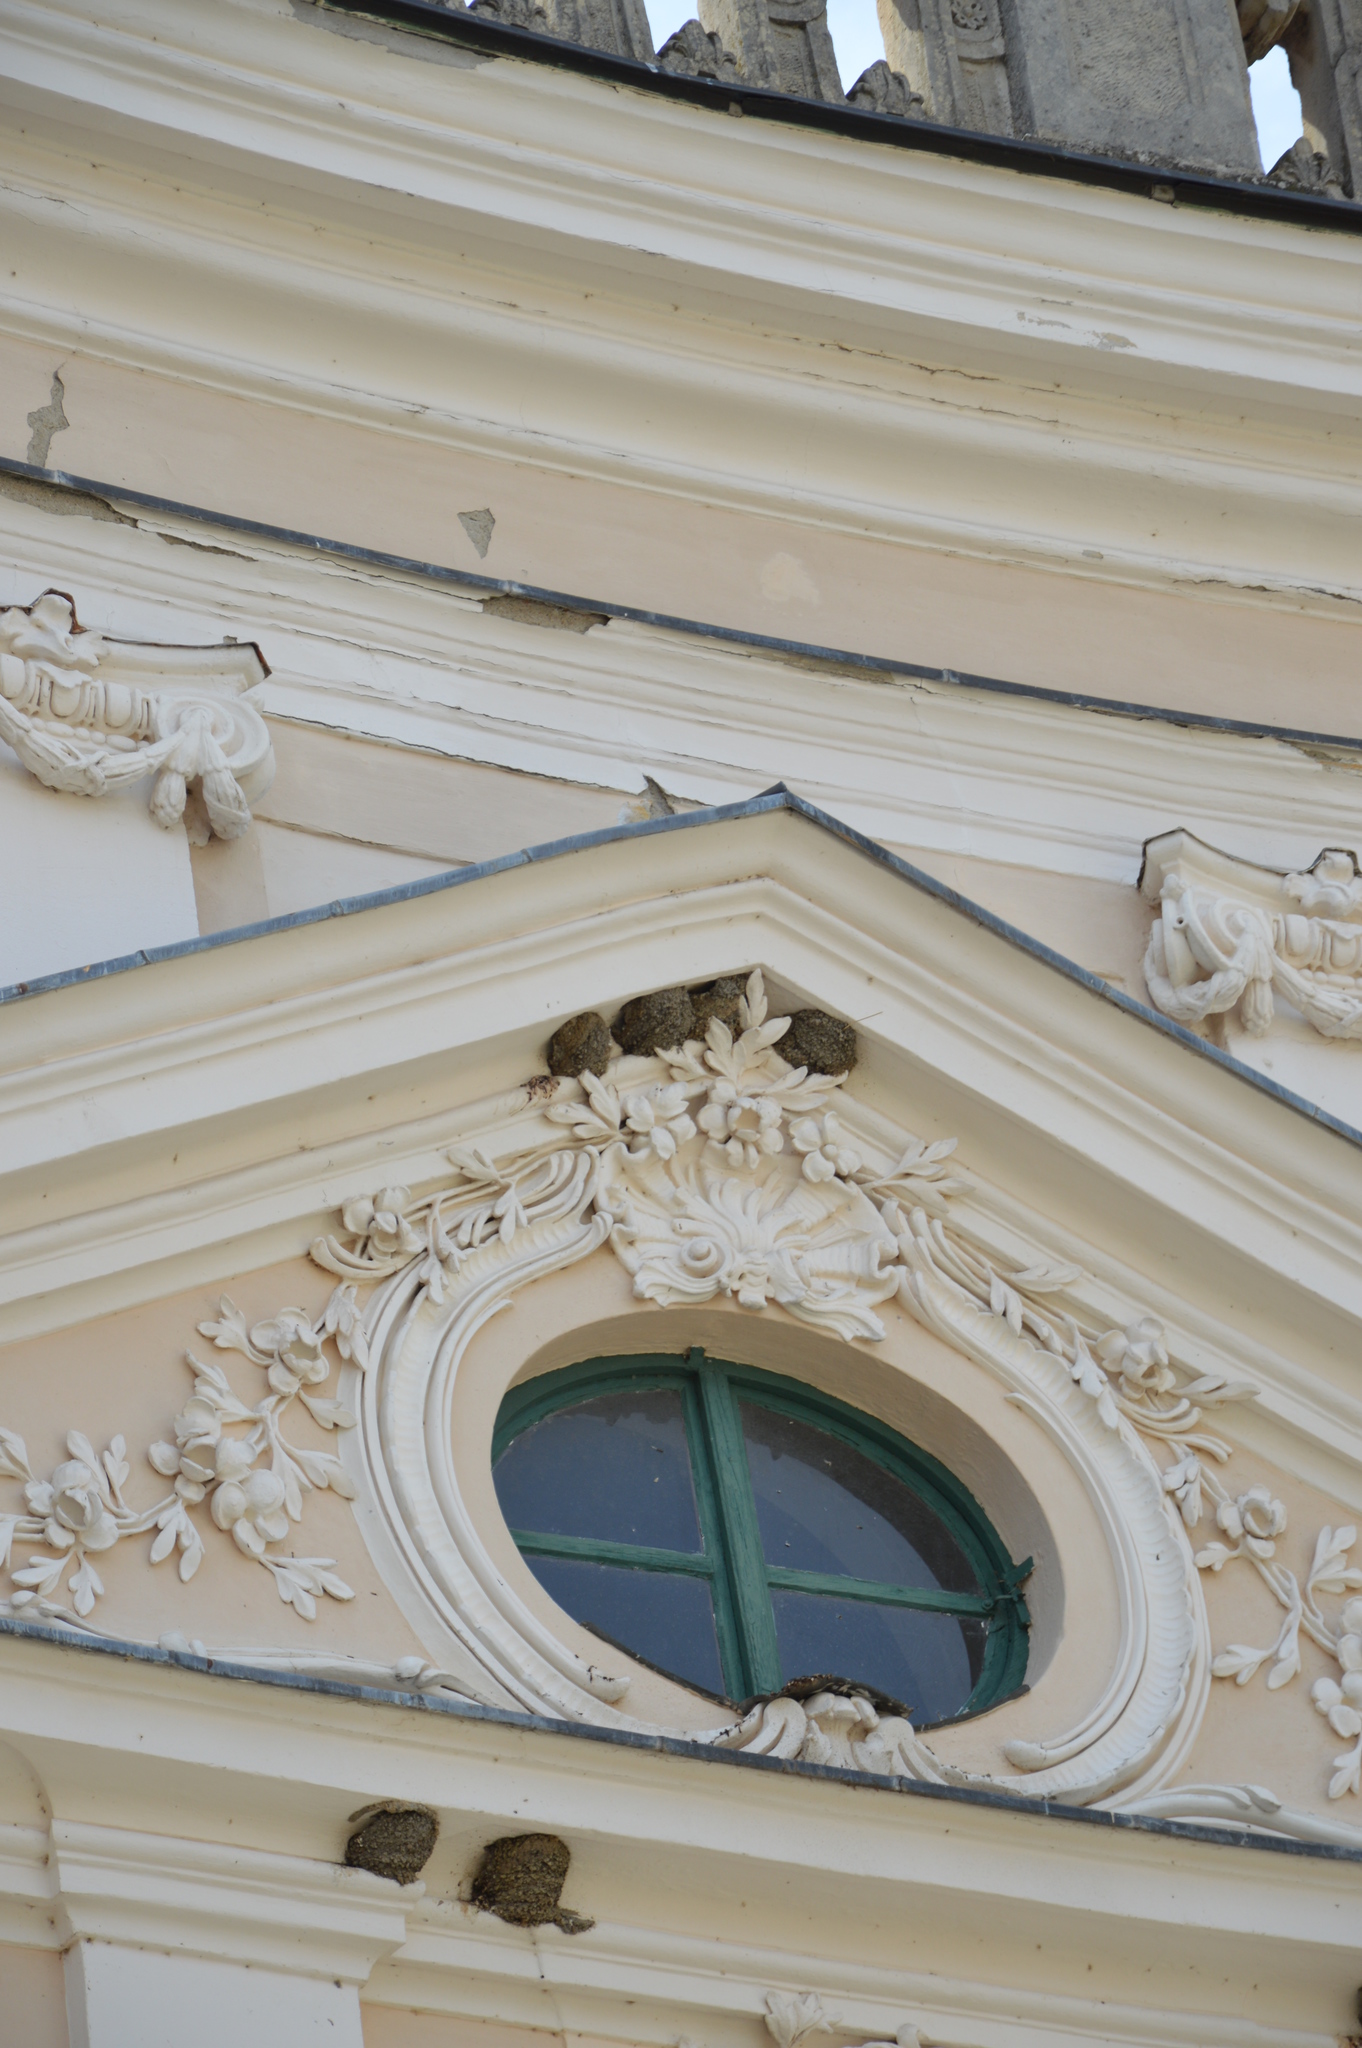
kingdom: Animalia
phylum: Chordata
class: Aves
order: Passeriformes
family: Hirundinidae
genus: Delichon
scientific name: Delichon urbicum
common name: Common house martin
